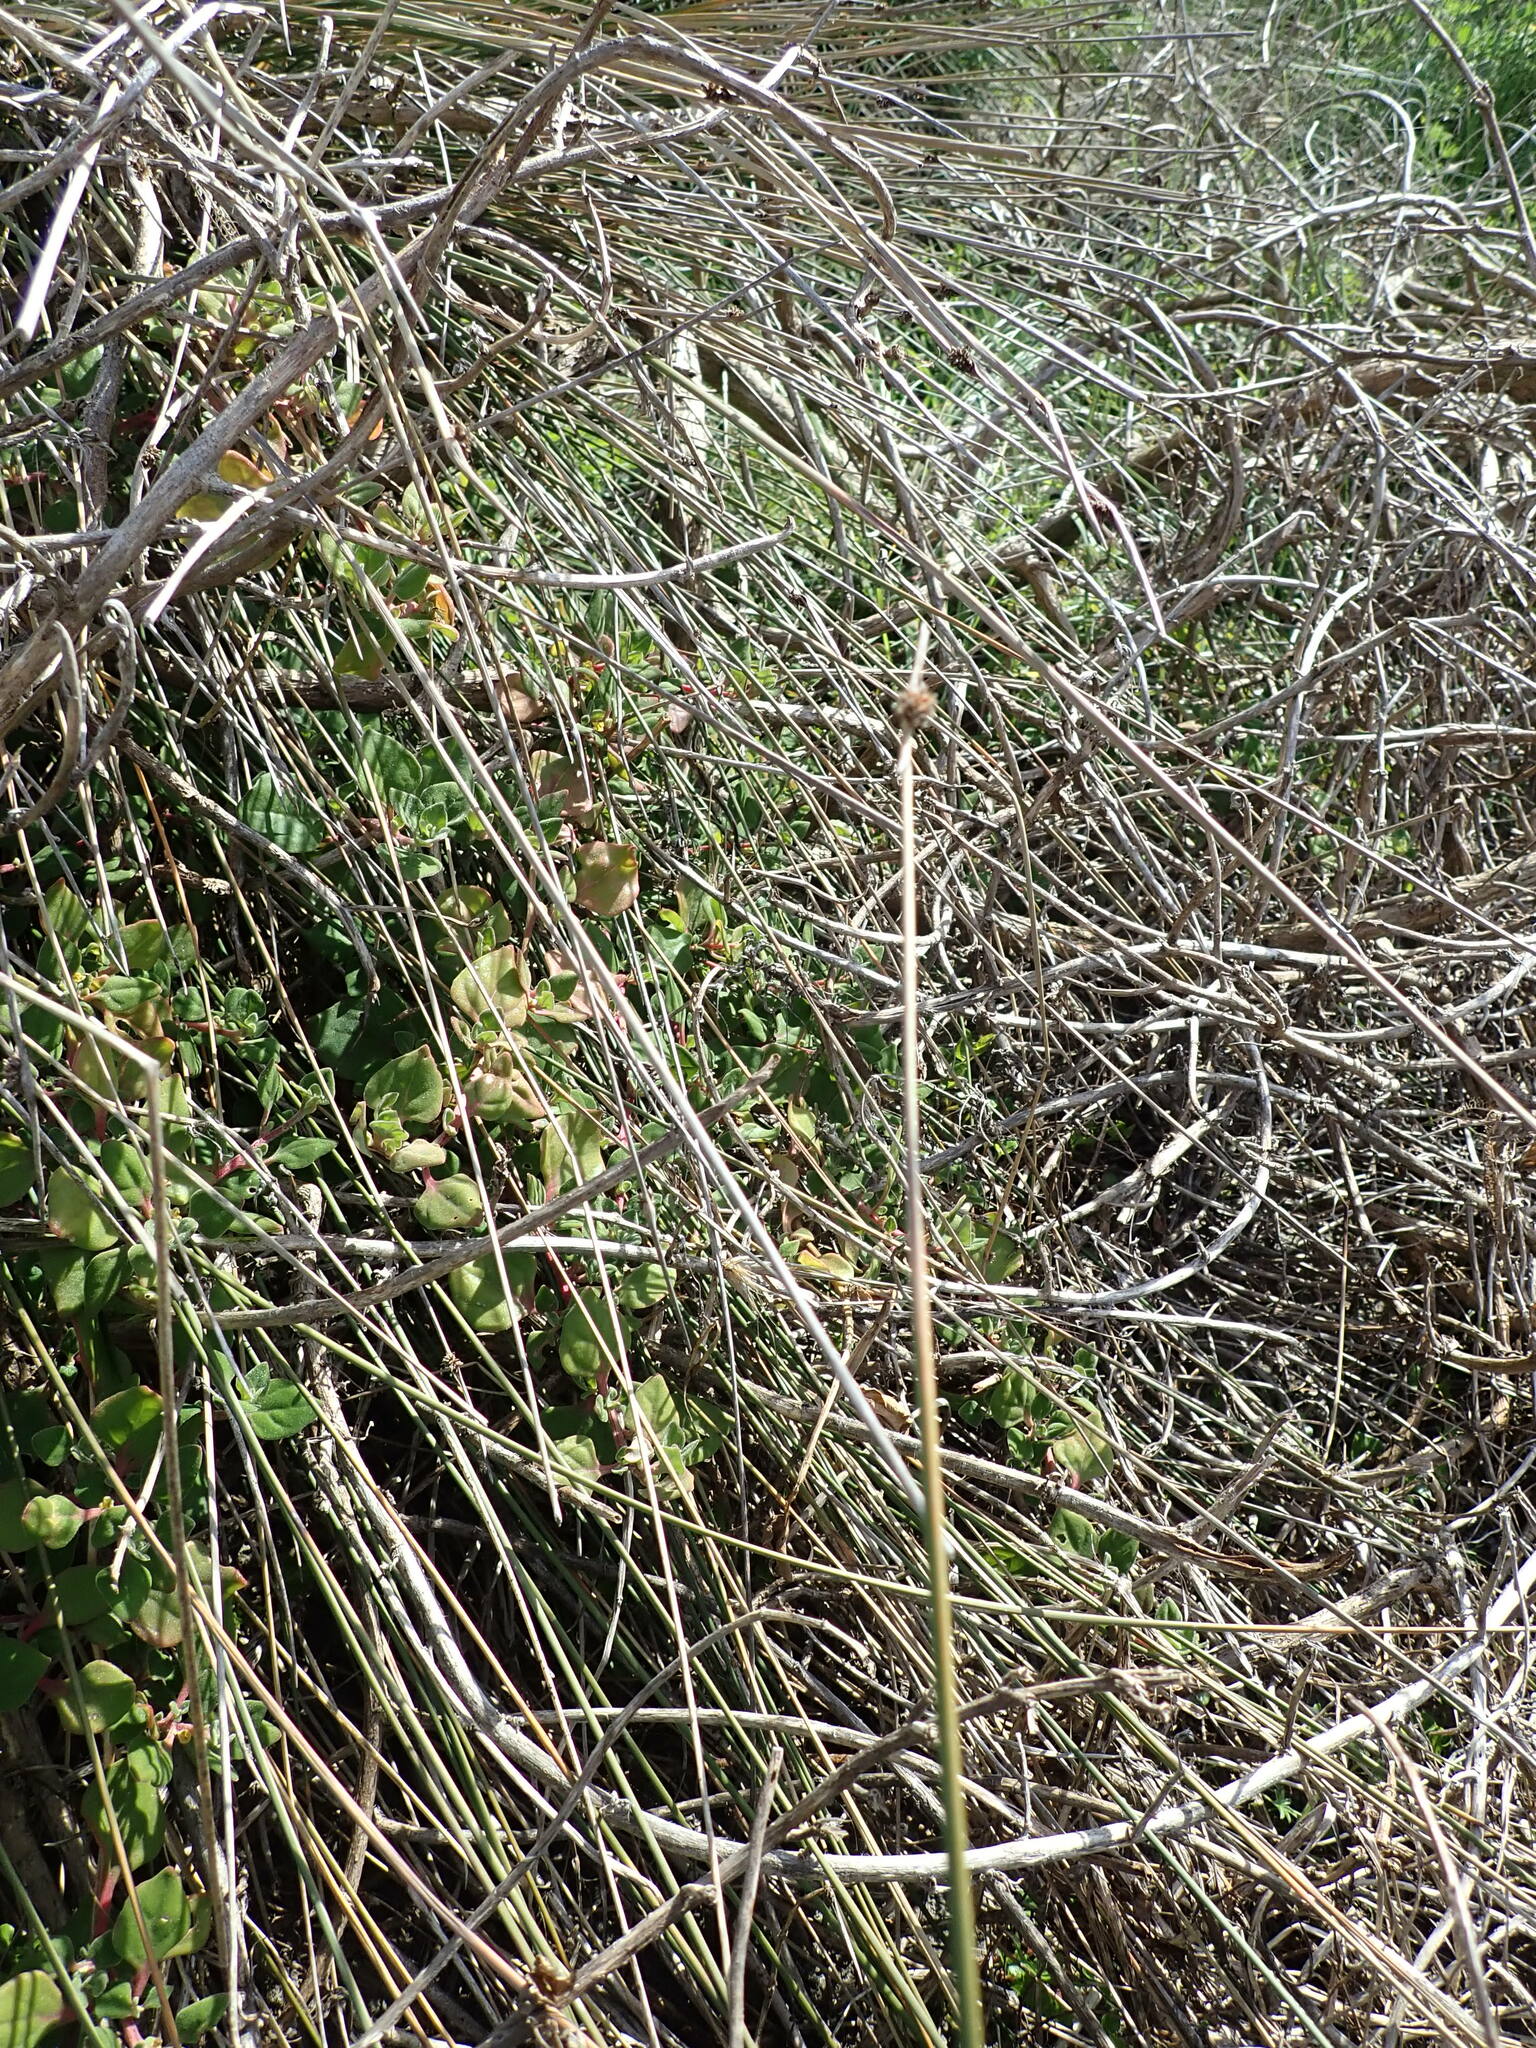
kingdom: Plantae
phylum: Tracheophyta
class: Magnoliopsida
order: Caryophyllales
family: Aizoaceae
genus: Tetragonia
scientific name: Tetragonia implexicoma
